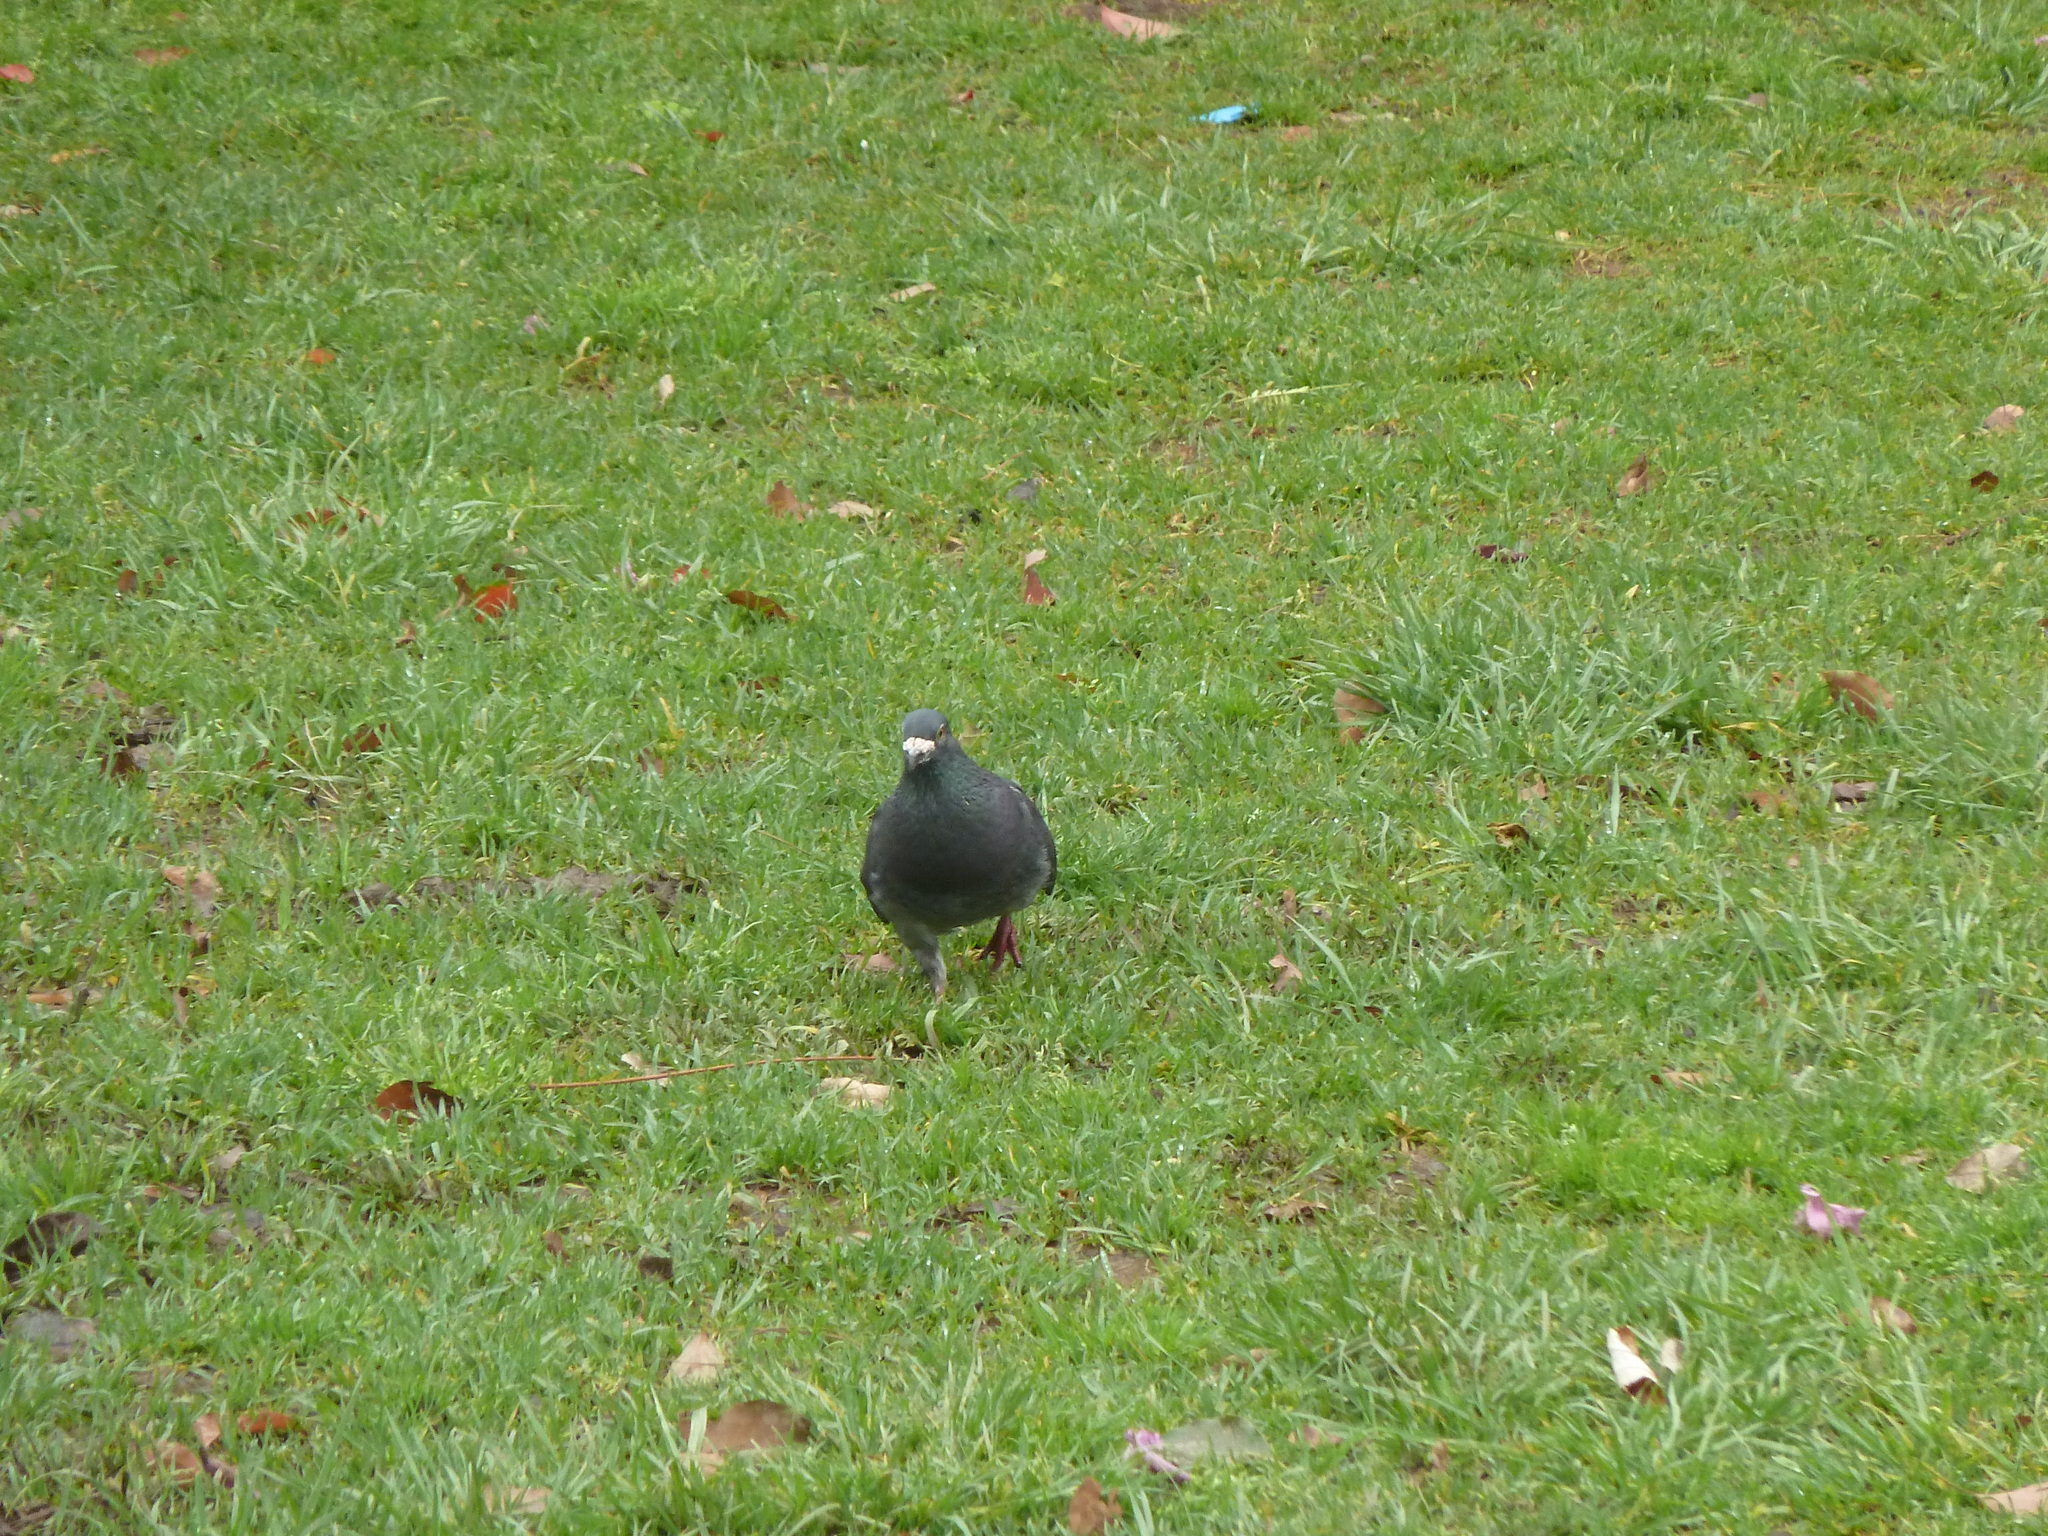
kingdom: Animalia
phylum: Chordata
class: Aves
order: Columbiformes
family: Columbidae
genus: Columba
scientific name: Columba livia
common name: Rock pigeon
